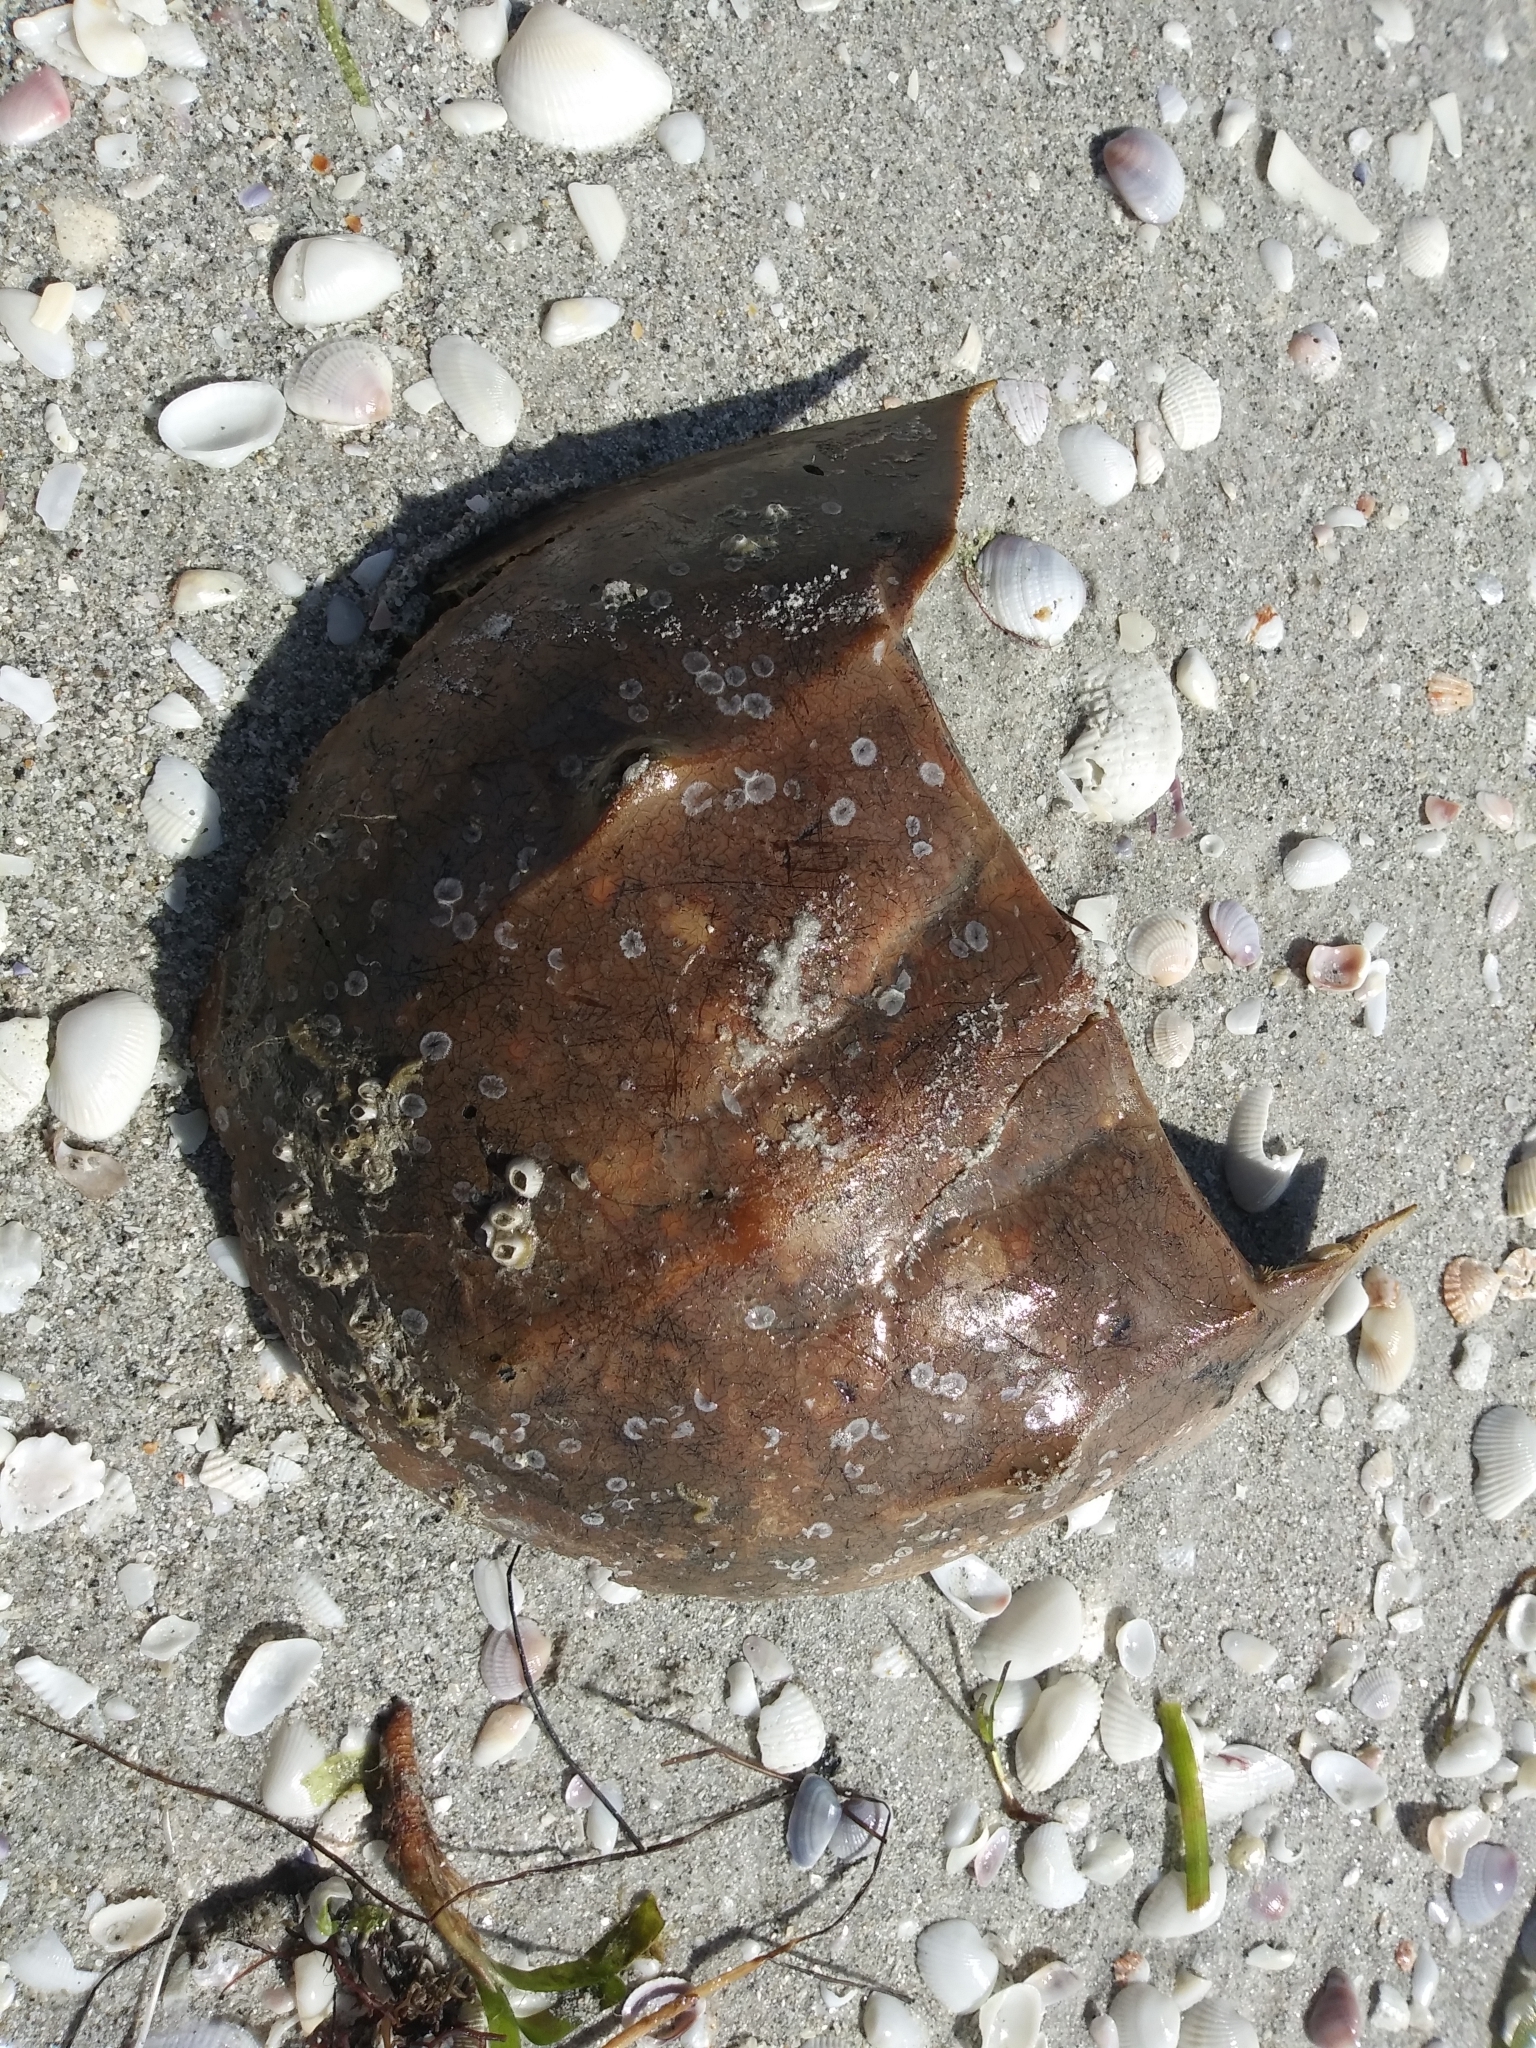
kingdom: Animalia
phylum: Arthropoda
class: Merostomata
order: Xiphosurida
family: Limulidae
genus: Limulus
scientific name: Limulus polyphemus
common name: Horseshoe crab
